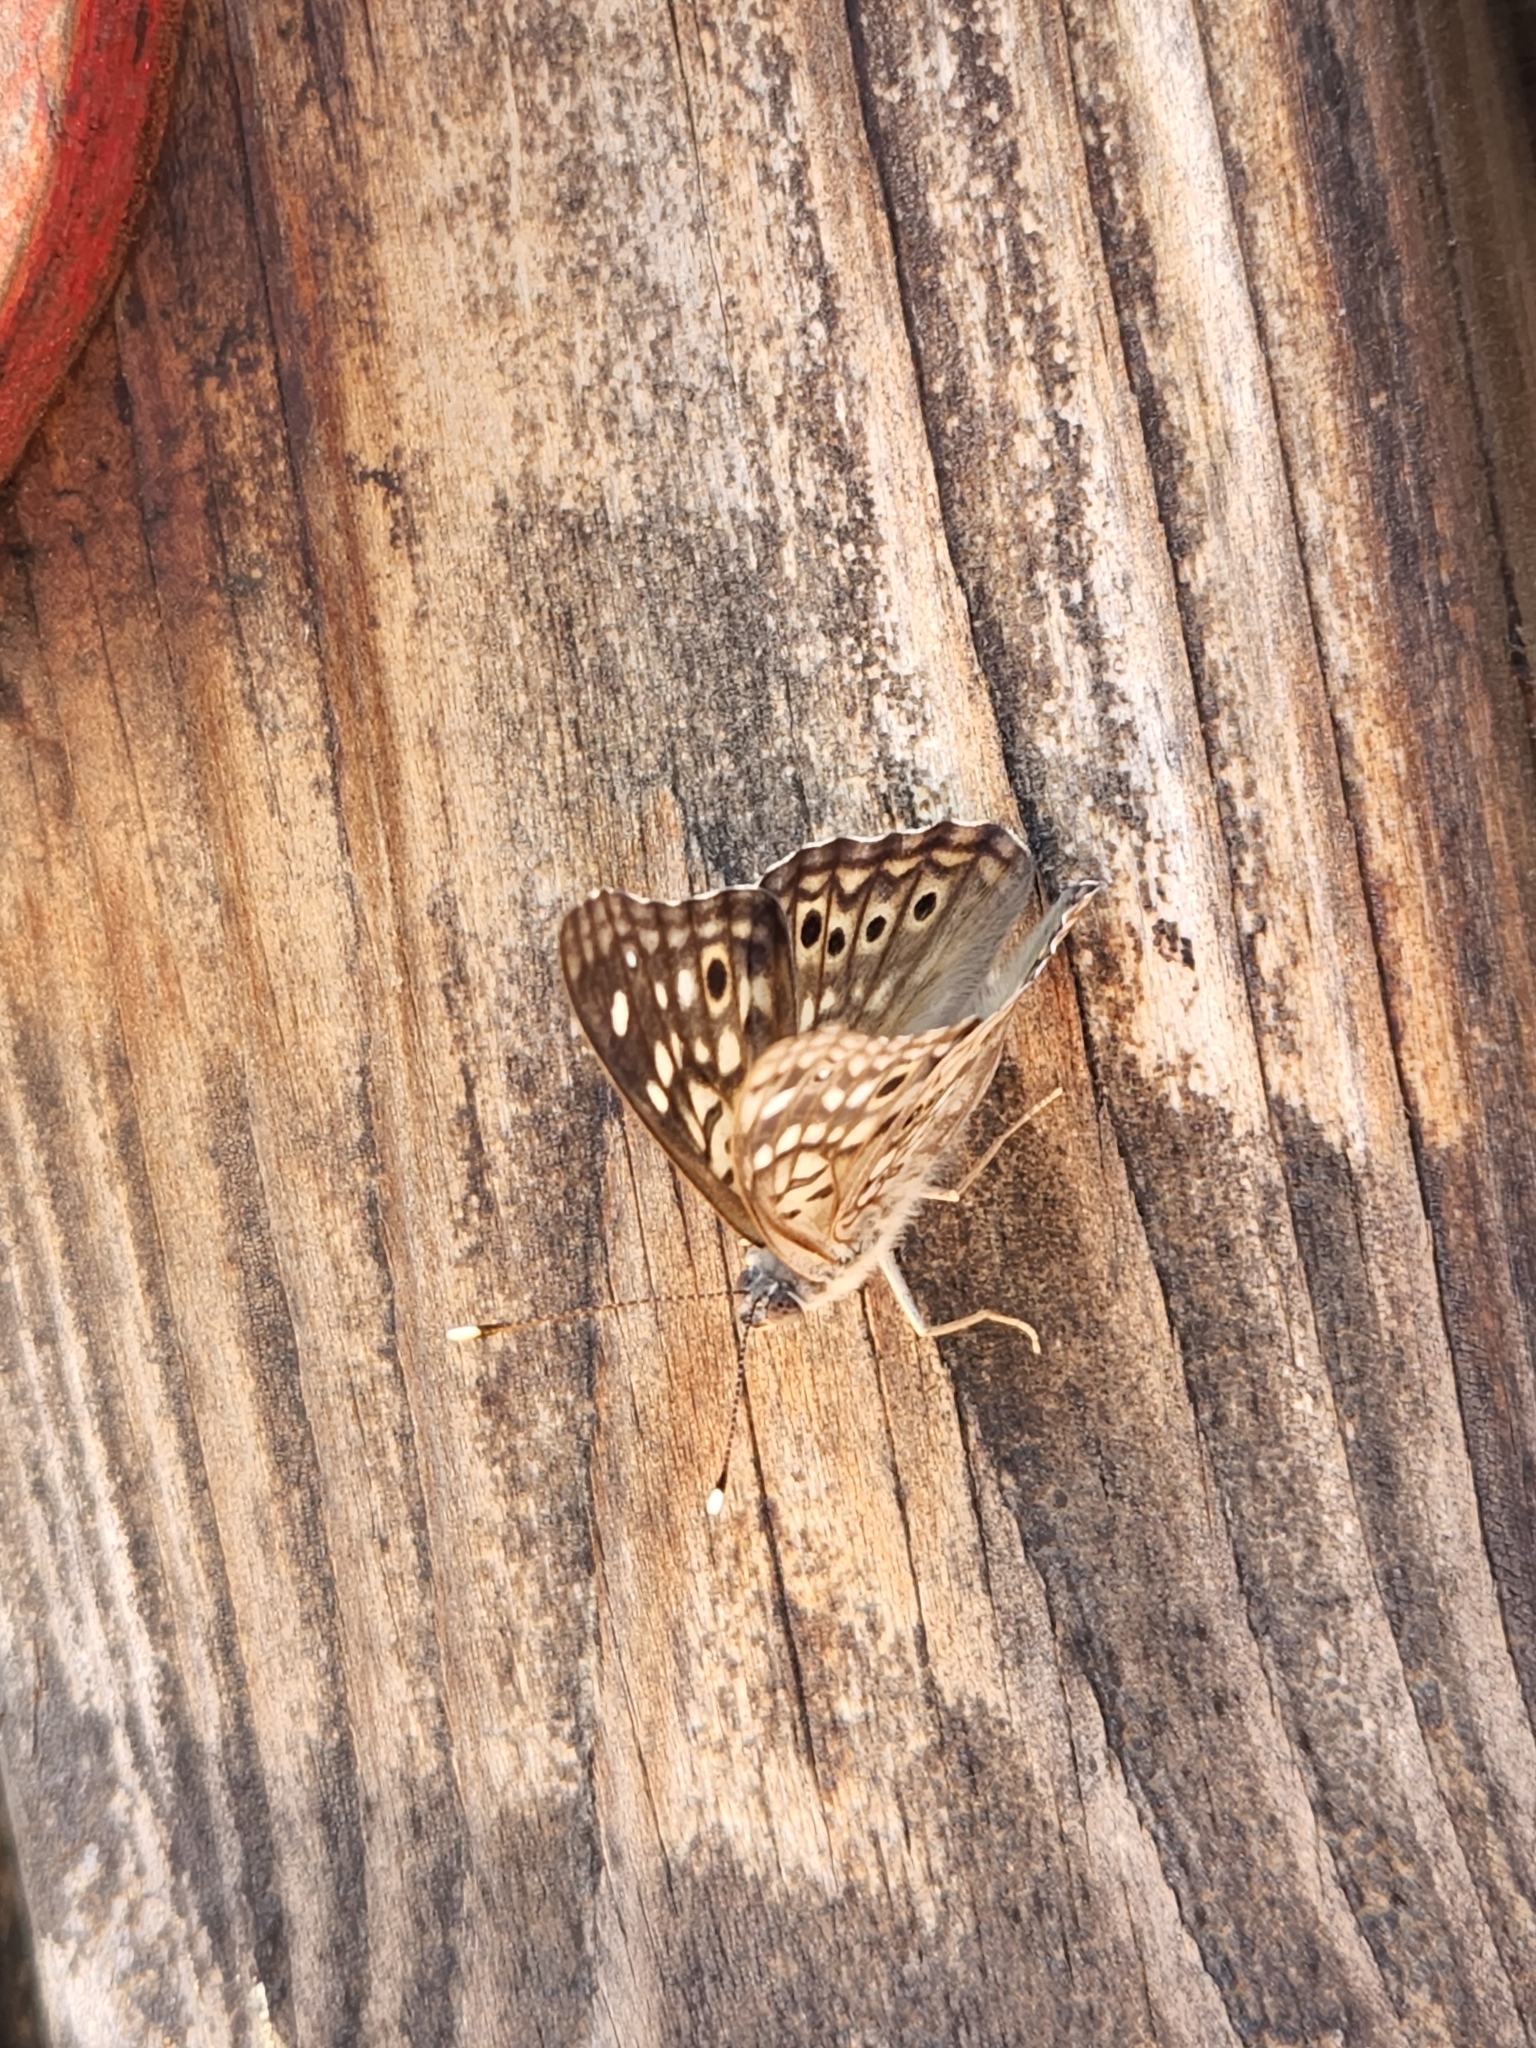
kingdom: Animalia
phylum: Arthropoda
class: Insecta
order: Lepidoptera
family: Nymphalidae
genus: Asterocampa
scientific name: Asterocampa celtis
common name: Hackberry emperor
